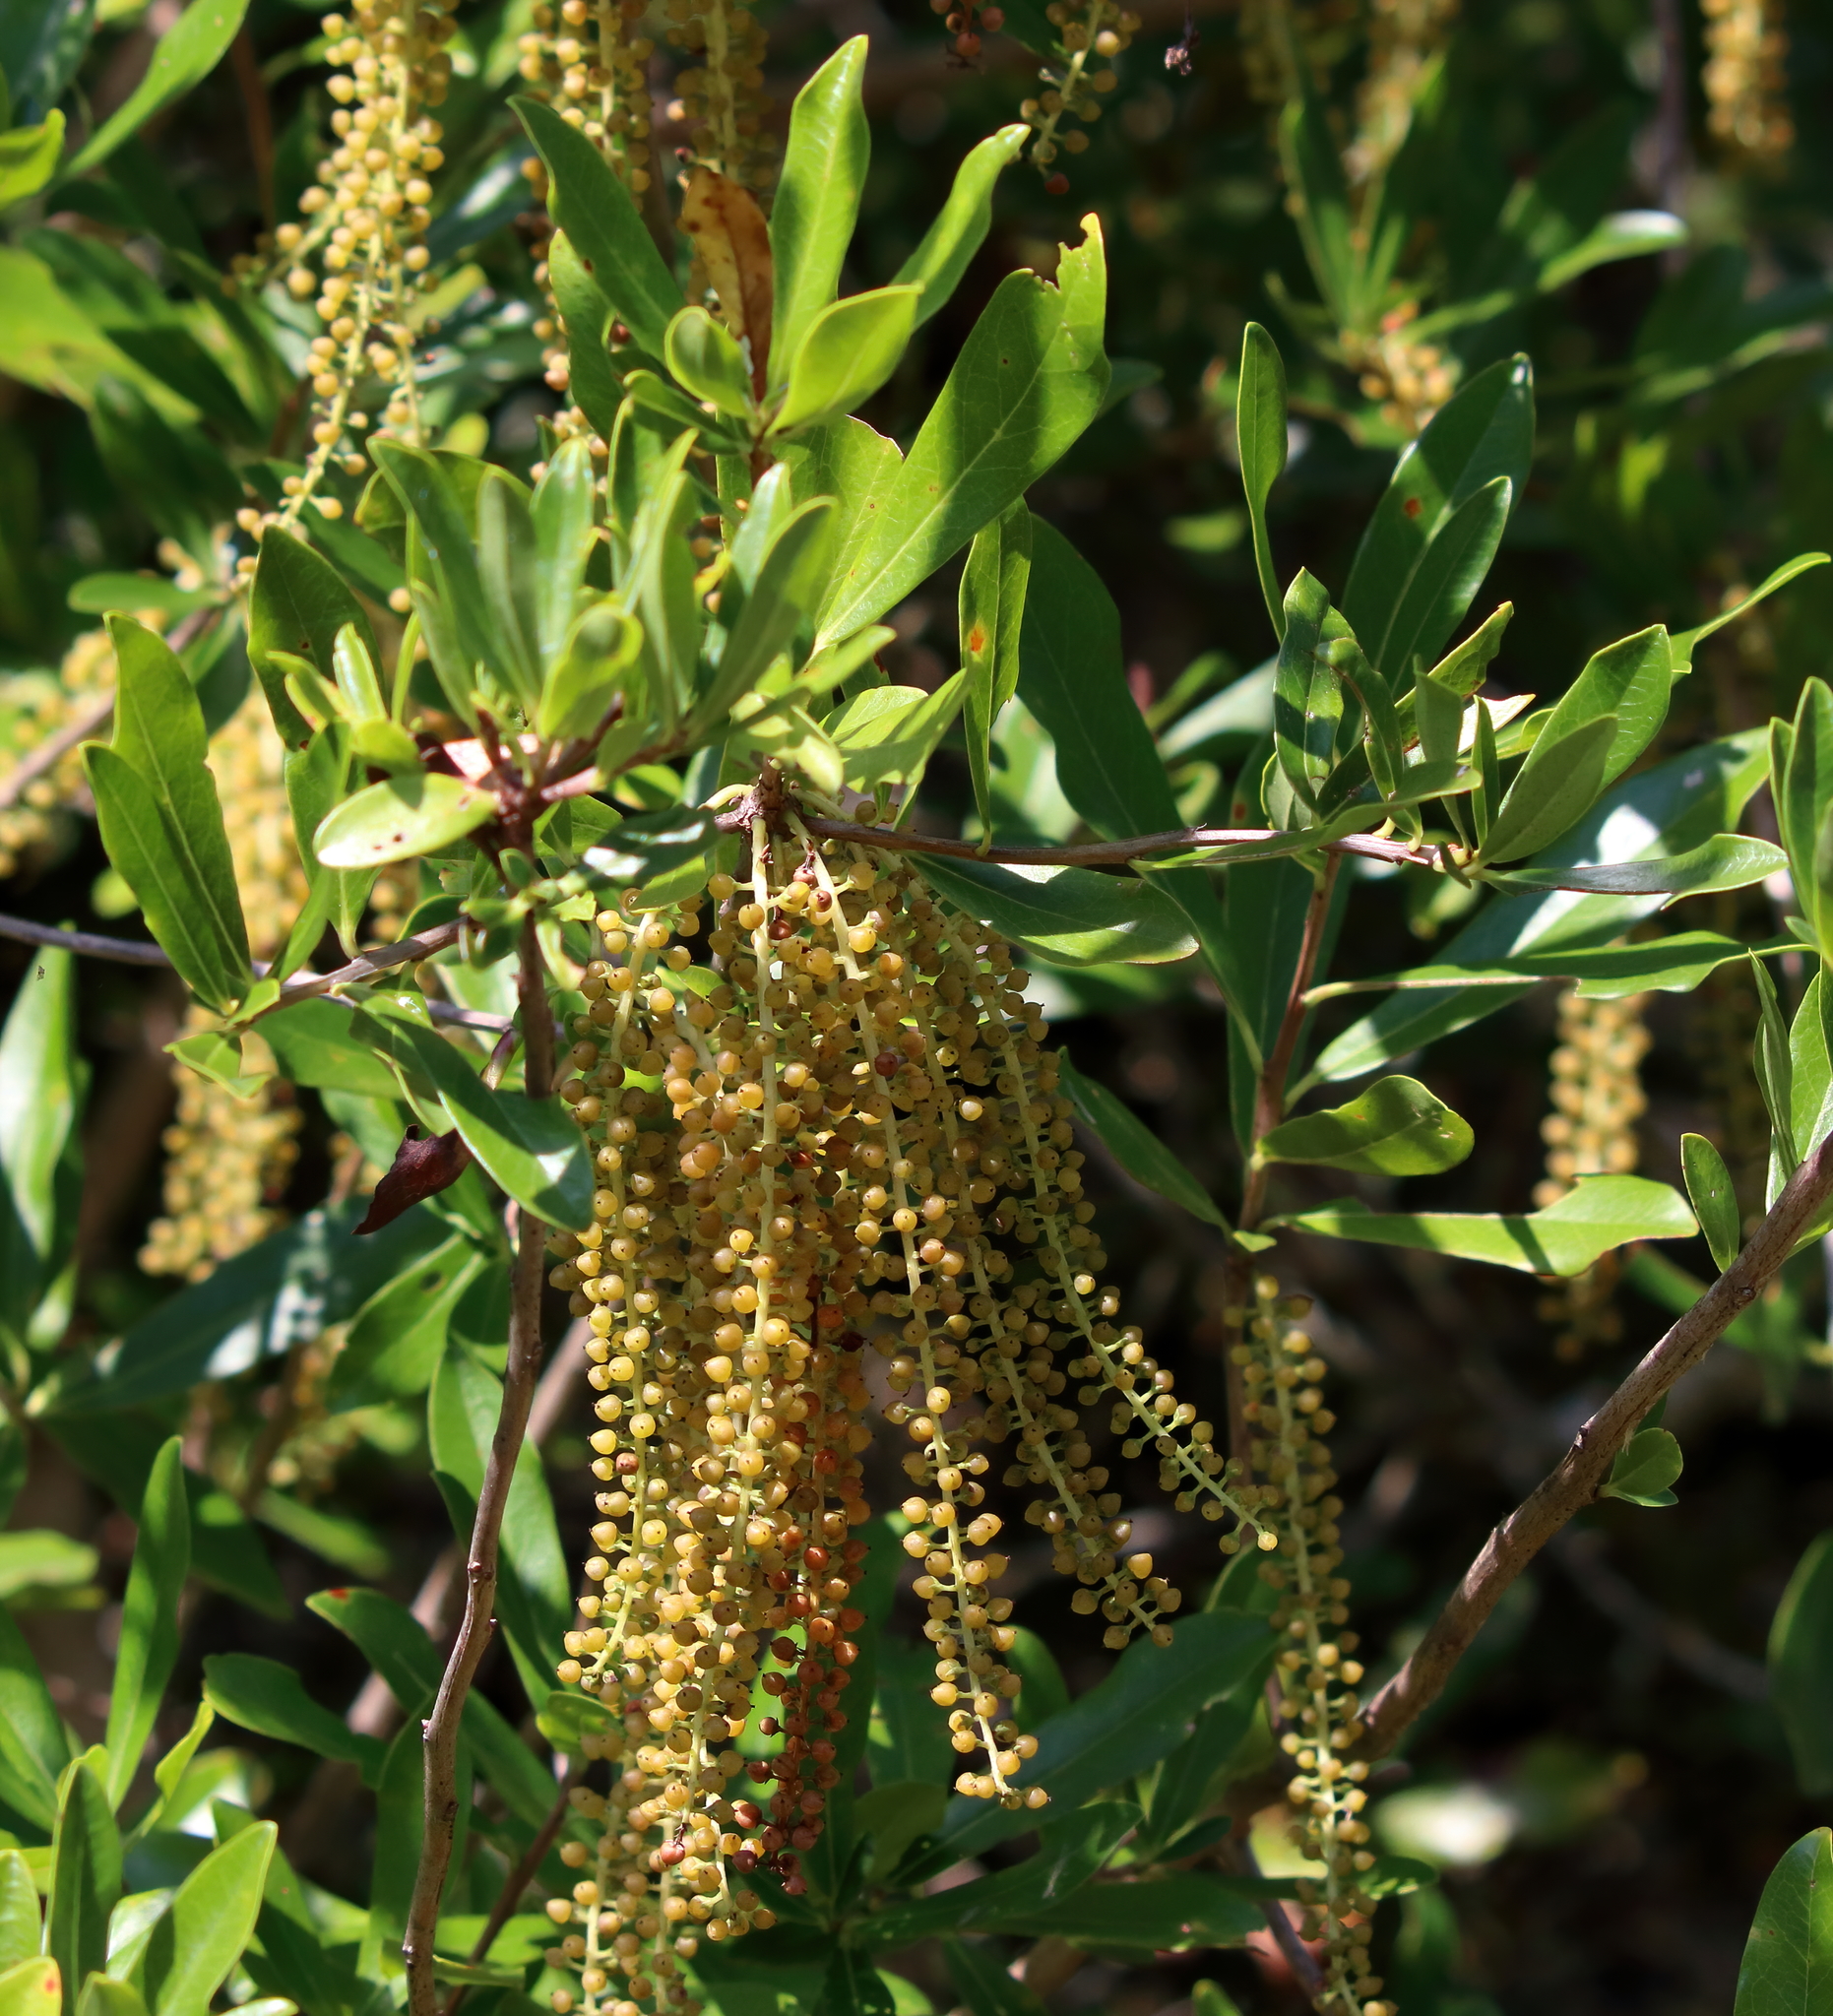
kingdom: Plantae
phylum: Tracheophyta
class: Magnoliopsida
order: Ericales
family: Cyrillaceae
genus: Cyrilla
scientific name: Cyrilla racemiflora
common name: Black titi
